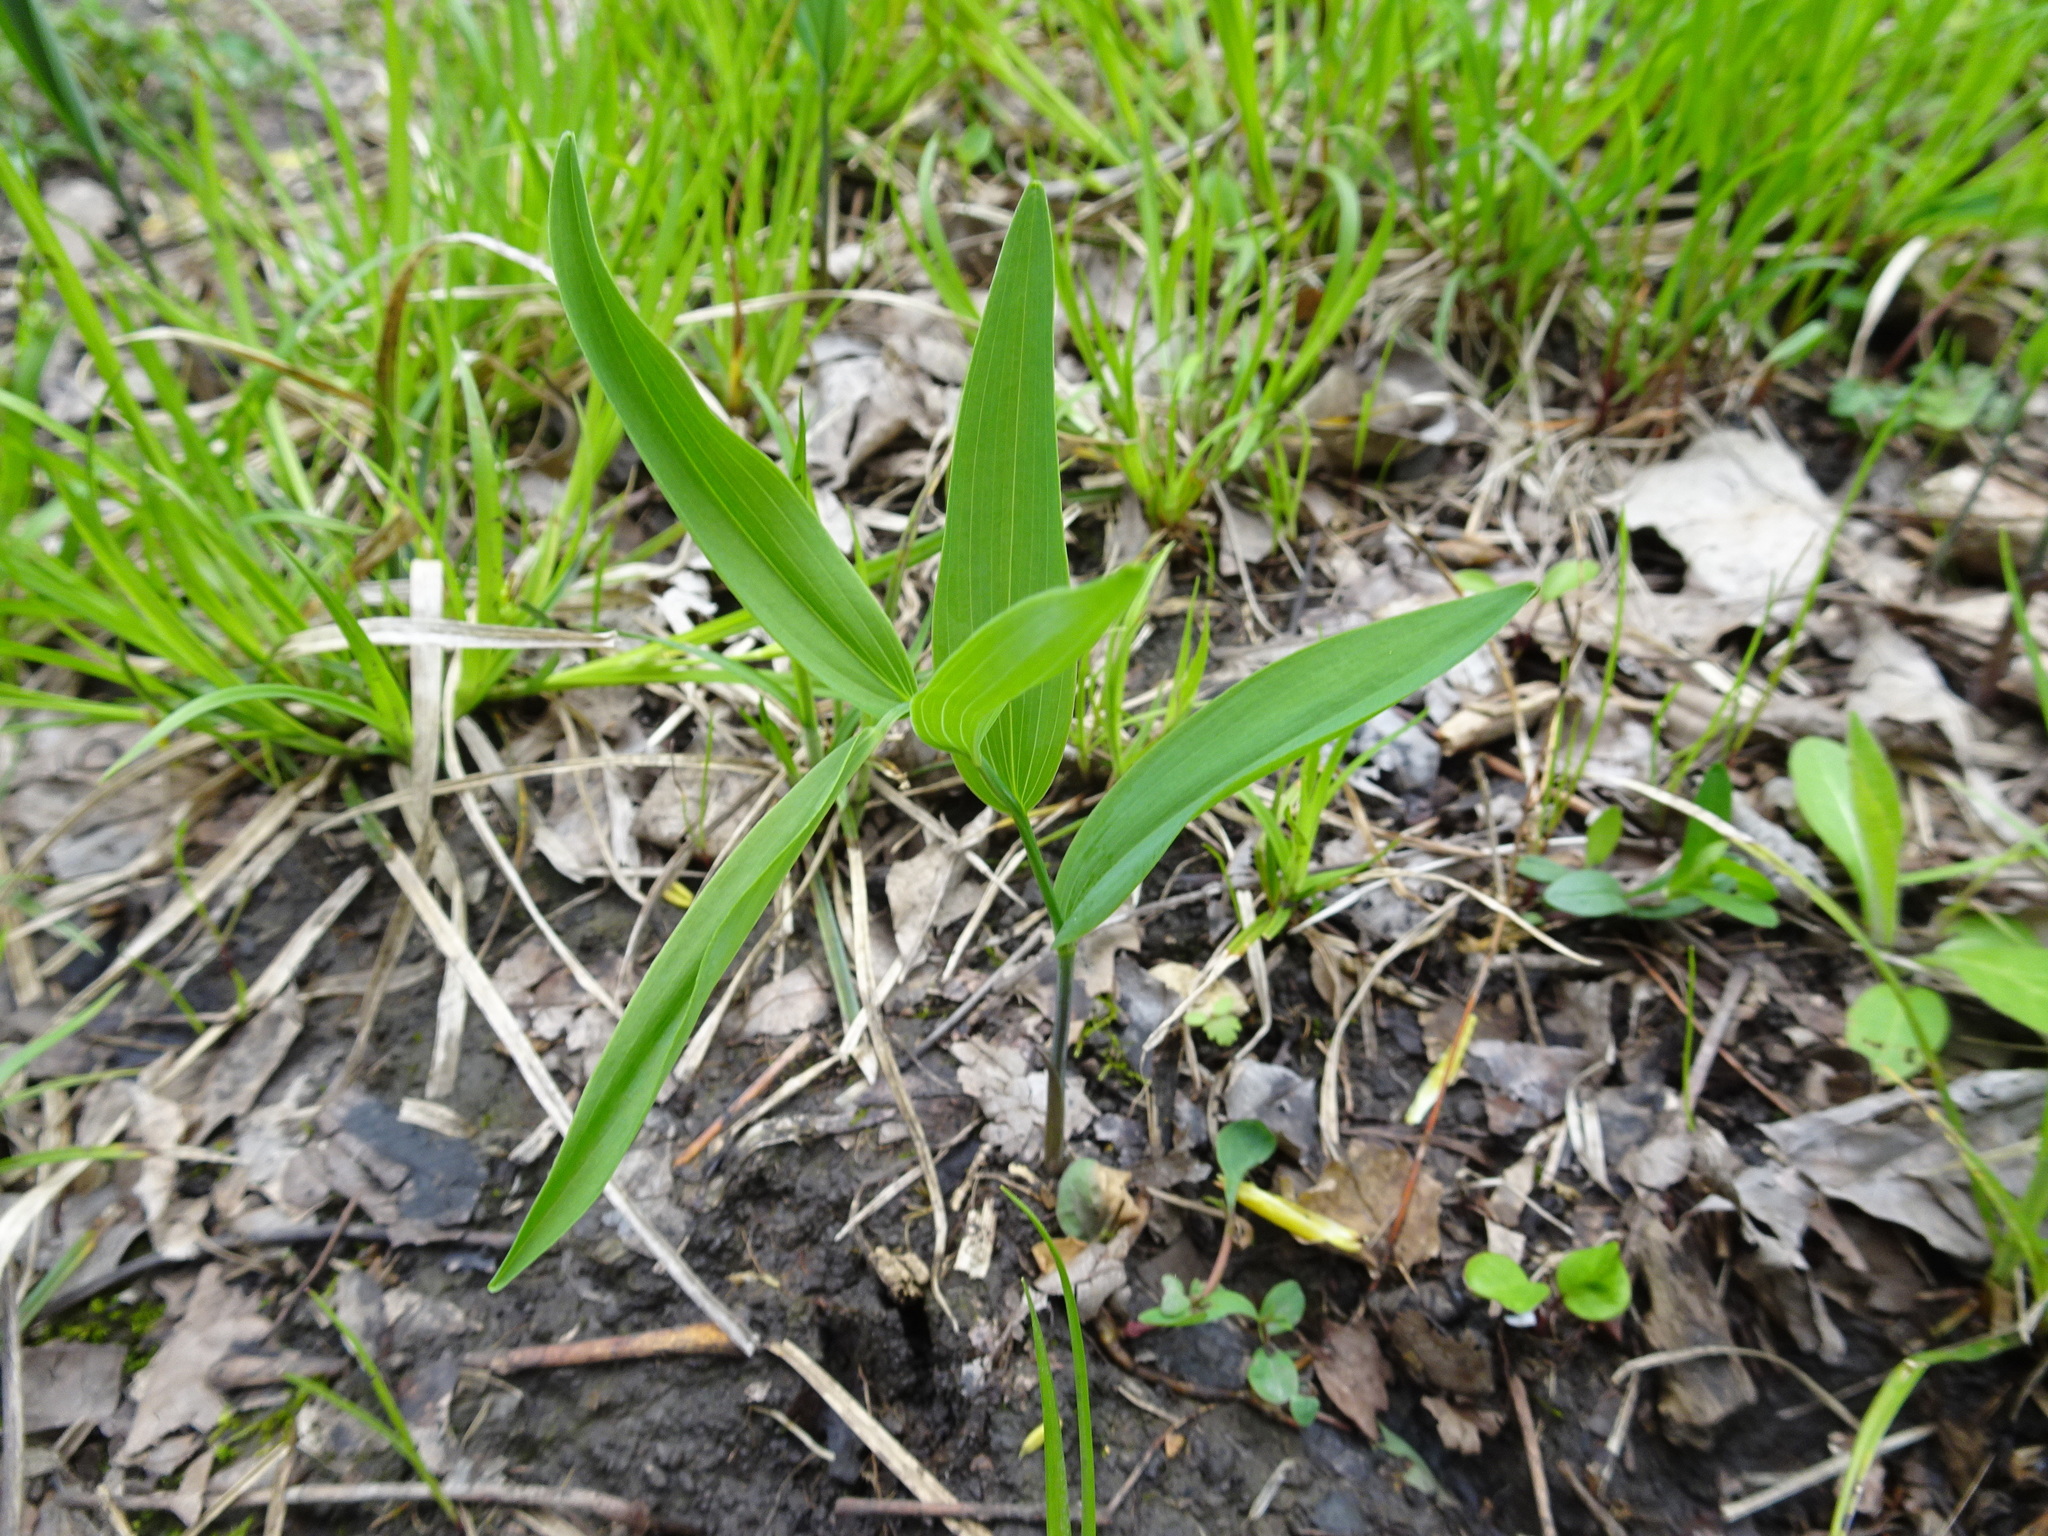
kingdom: Plantae
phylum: Tracheophyta
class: Liliopsida
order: Asparagales
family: Asparagaceae
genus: Polygonatum
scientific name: Polygonatum biflorum
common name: American solomon's-seal
